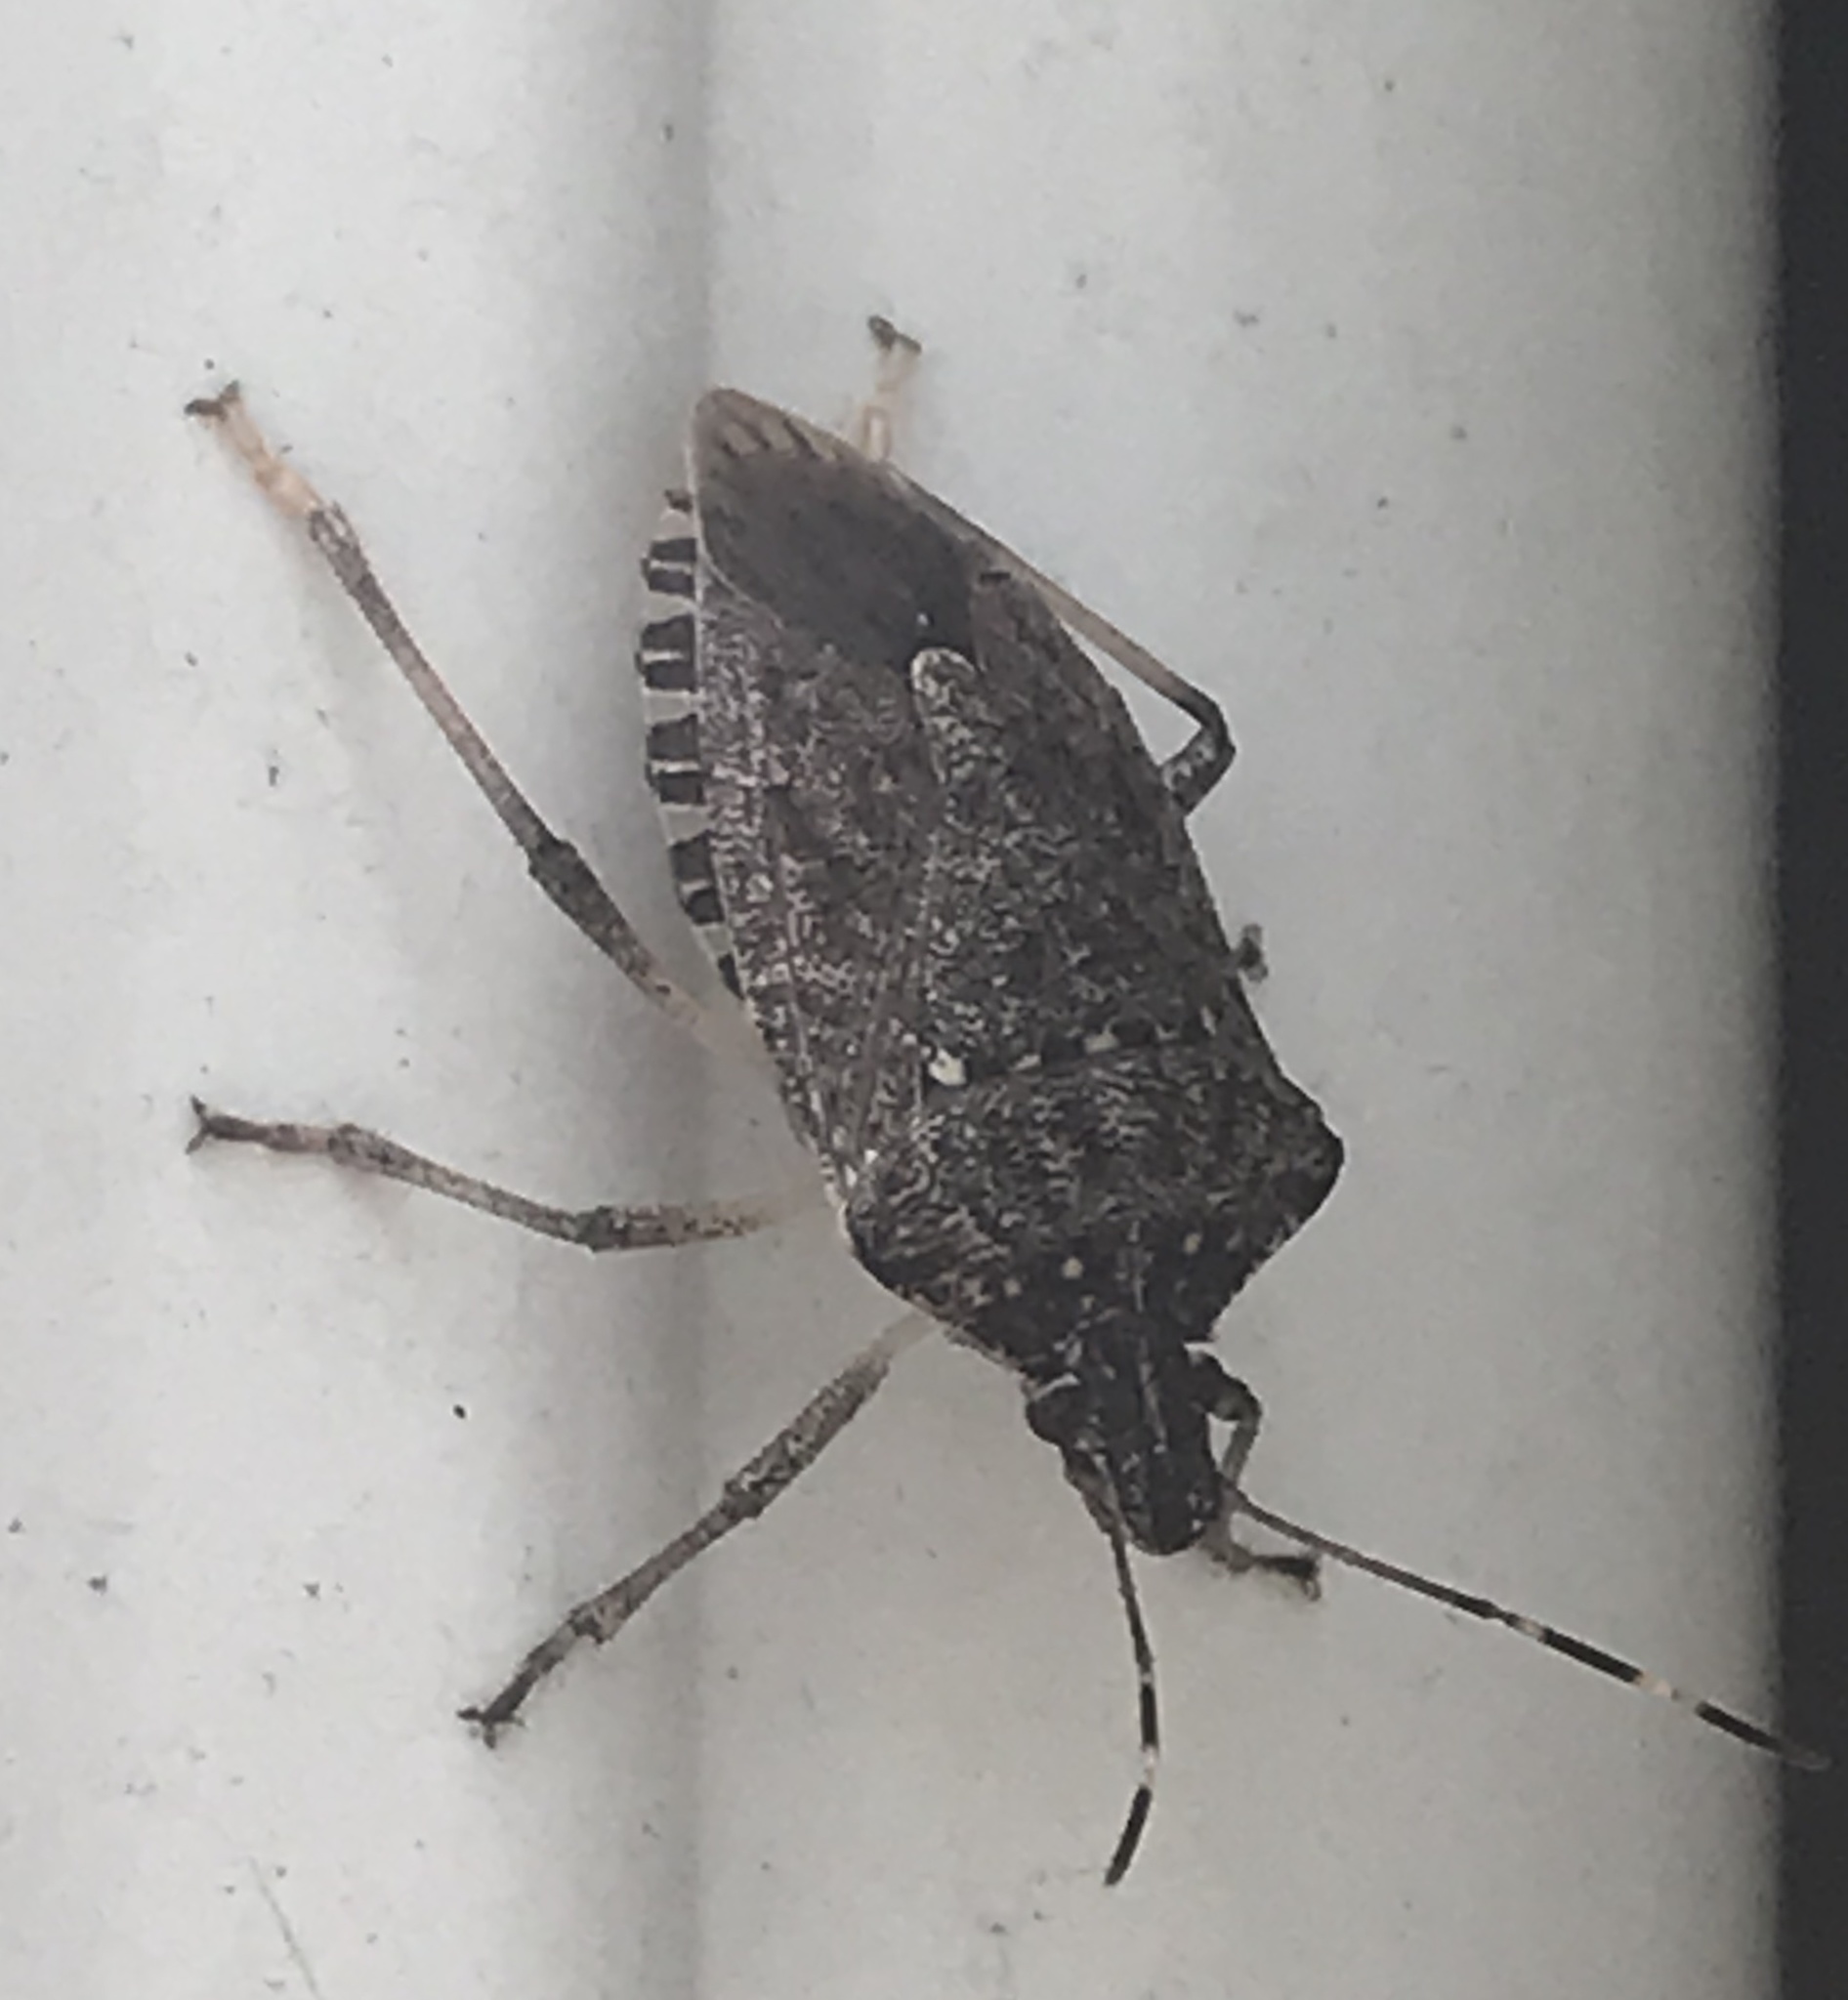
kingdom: Animalia
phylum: Arthropoda
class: Insecta
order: Hemiptera
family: Pentatomidae
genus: Halyomorpha
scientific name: Halyomorpha halys
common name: Brown marmorated stink bug
